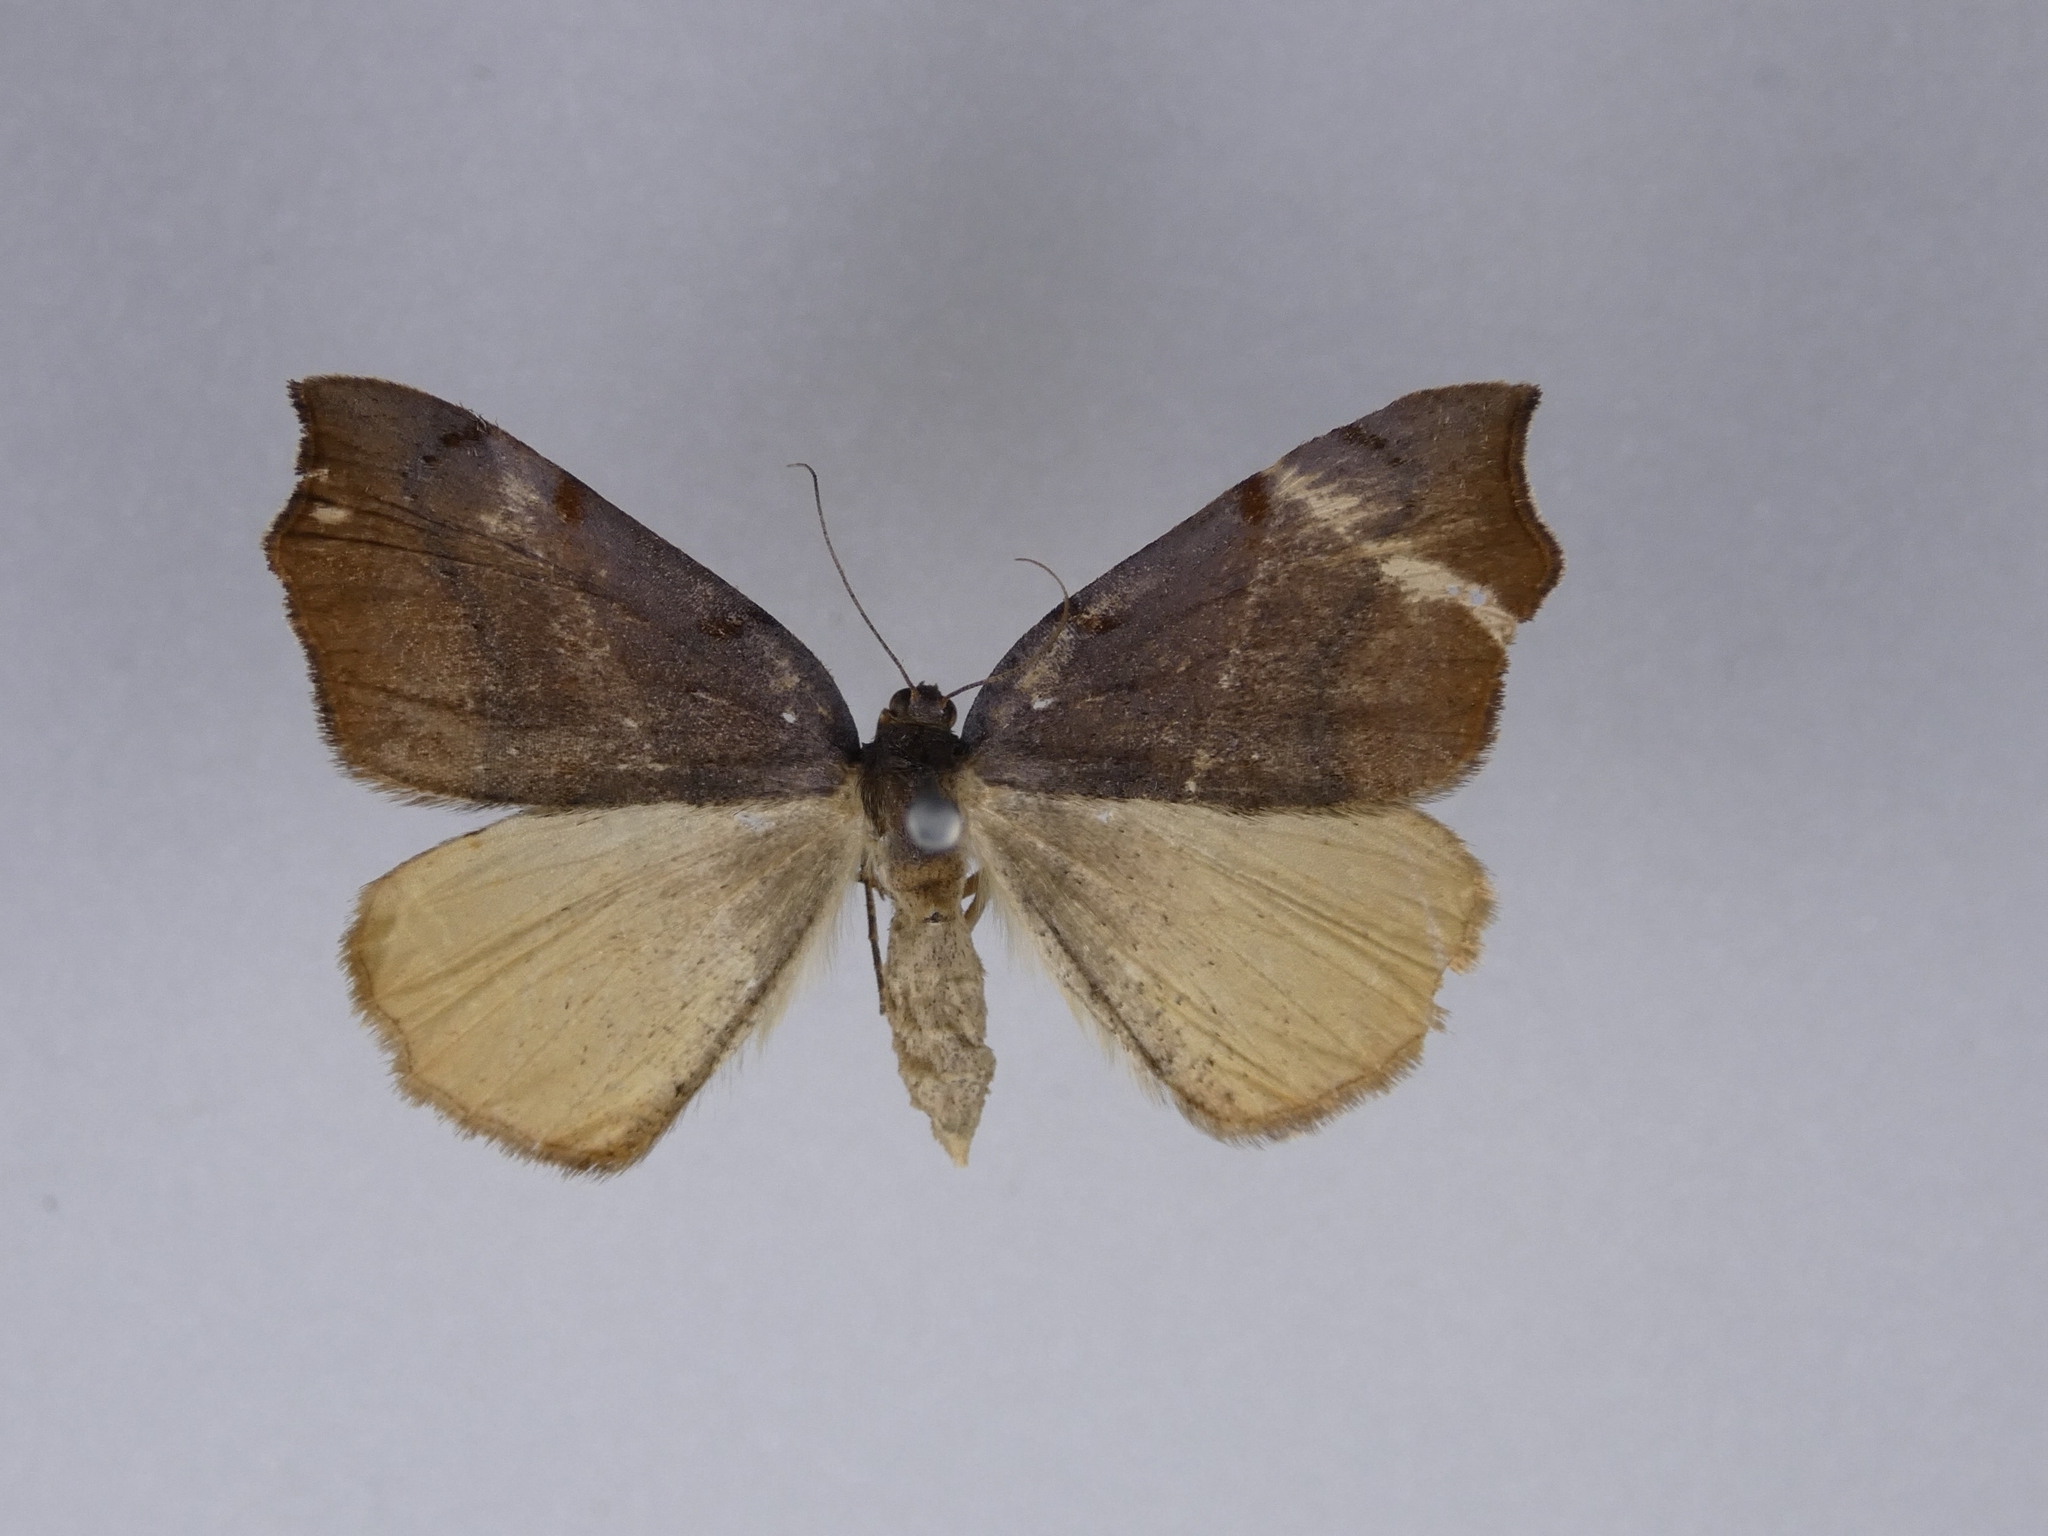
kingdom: Animalia
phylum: Arthropoda
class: Insecta
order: Lepidoptera
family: Geometridae
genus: Sestra
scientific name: Sestra flexata
